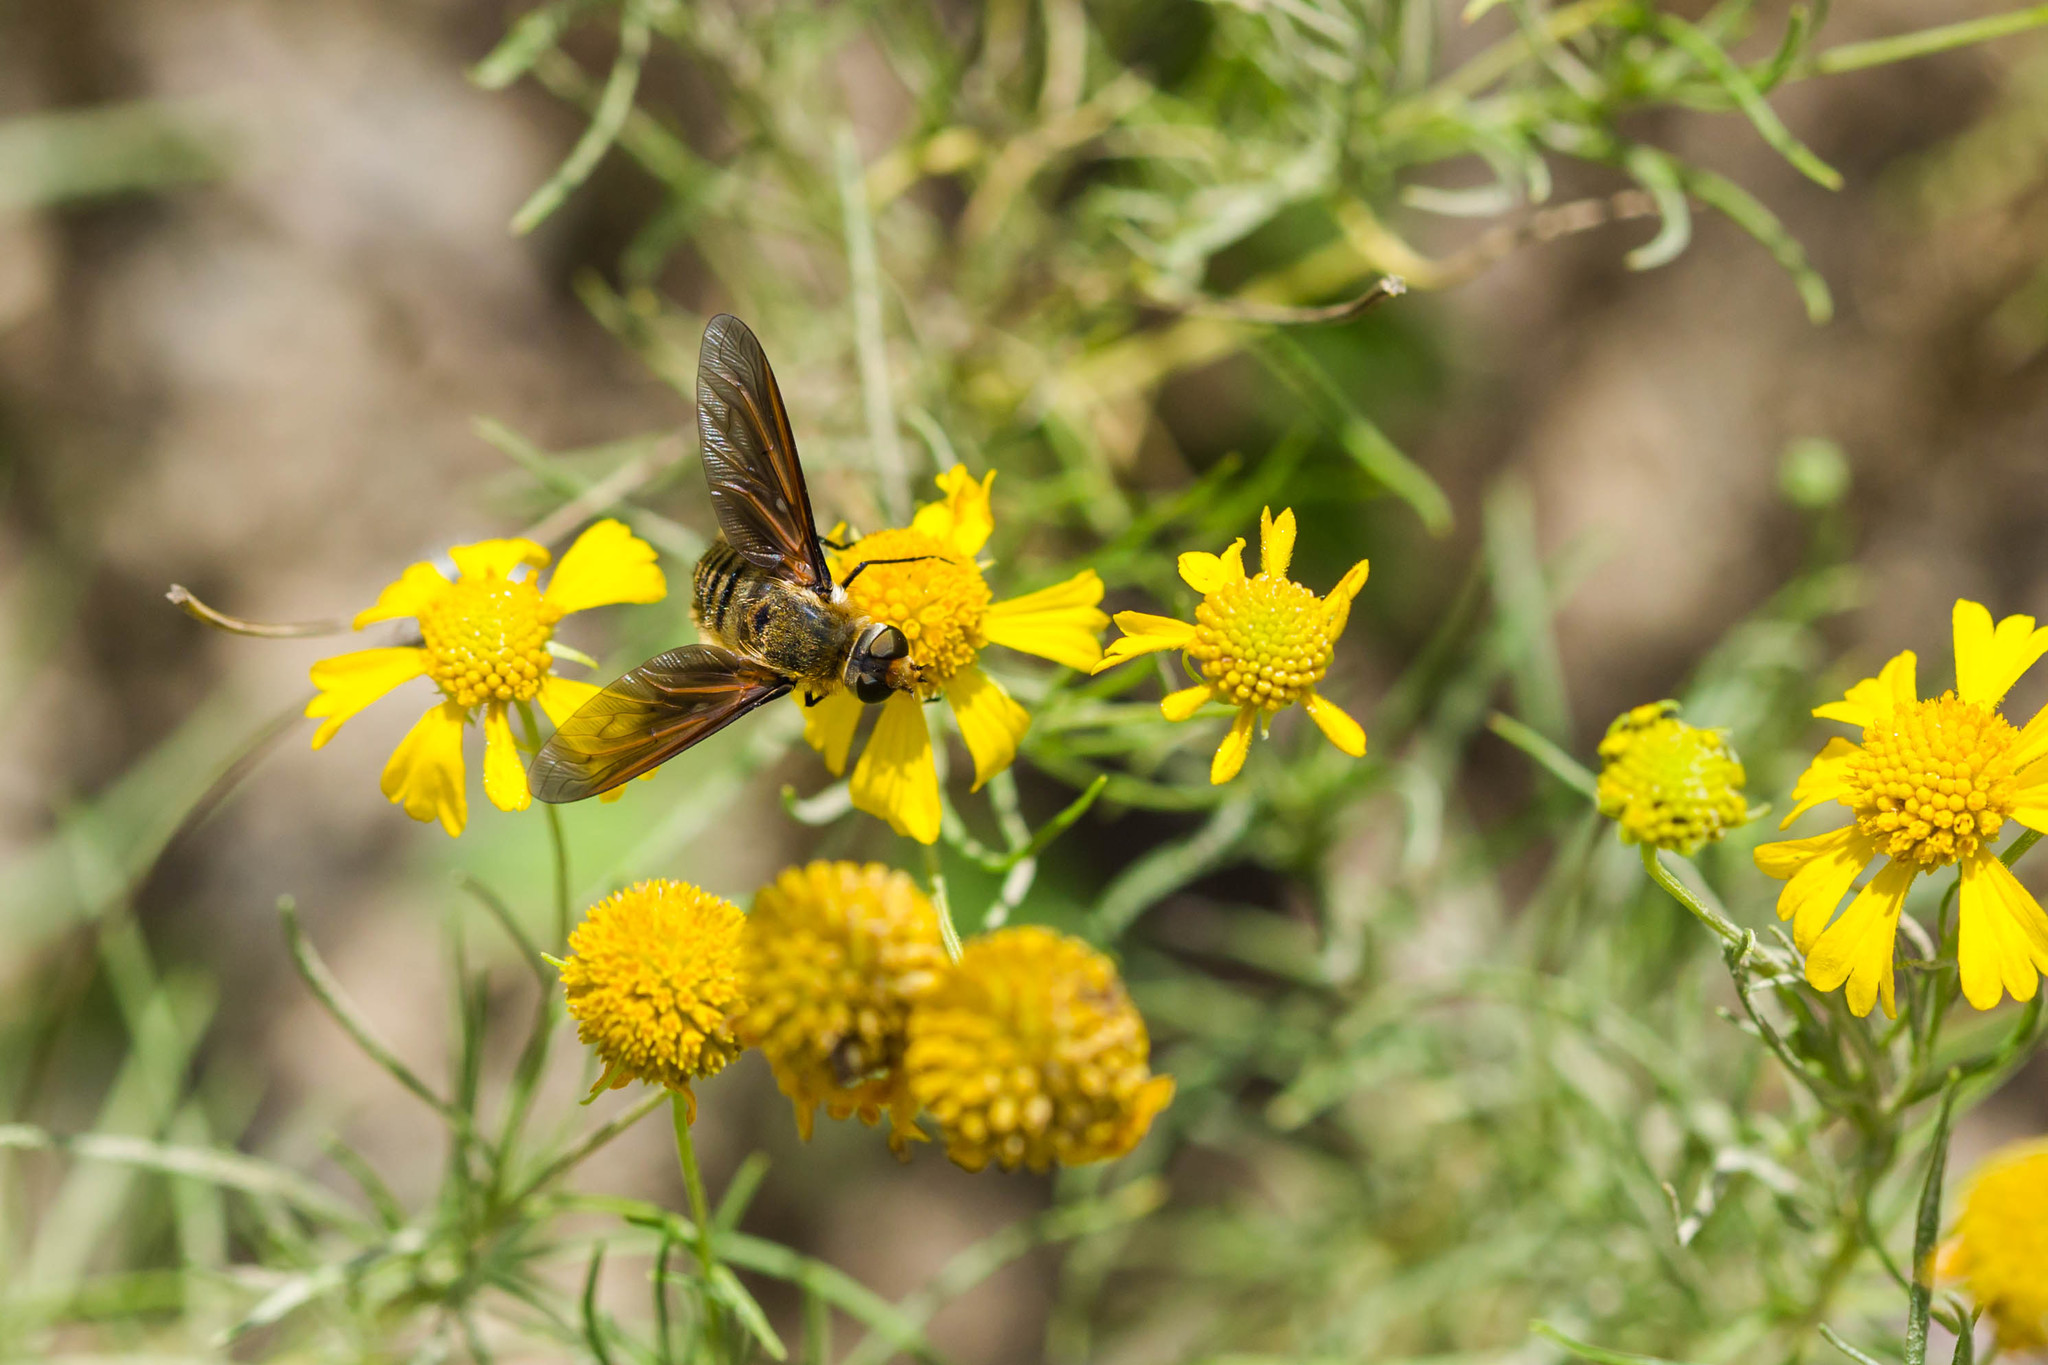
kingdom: Animalia
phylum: Arthropoda
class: Insecta
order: Diptera
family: Bombyliidae
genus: Poecilanthrax
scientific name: Poecilanthrax lucifer
